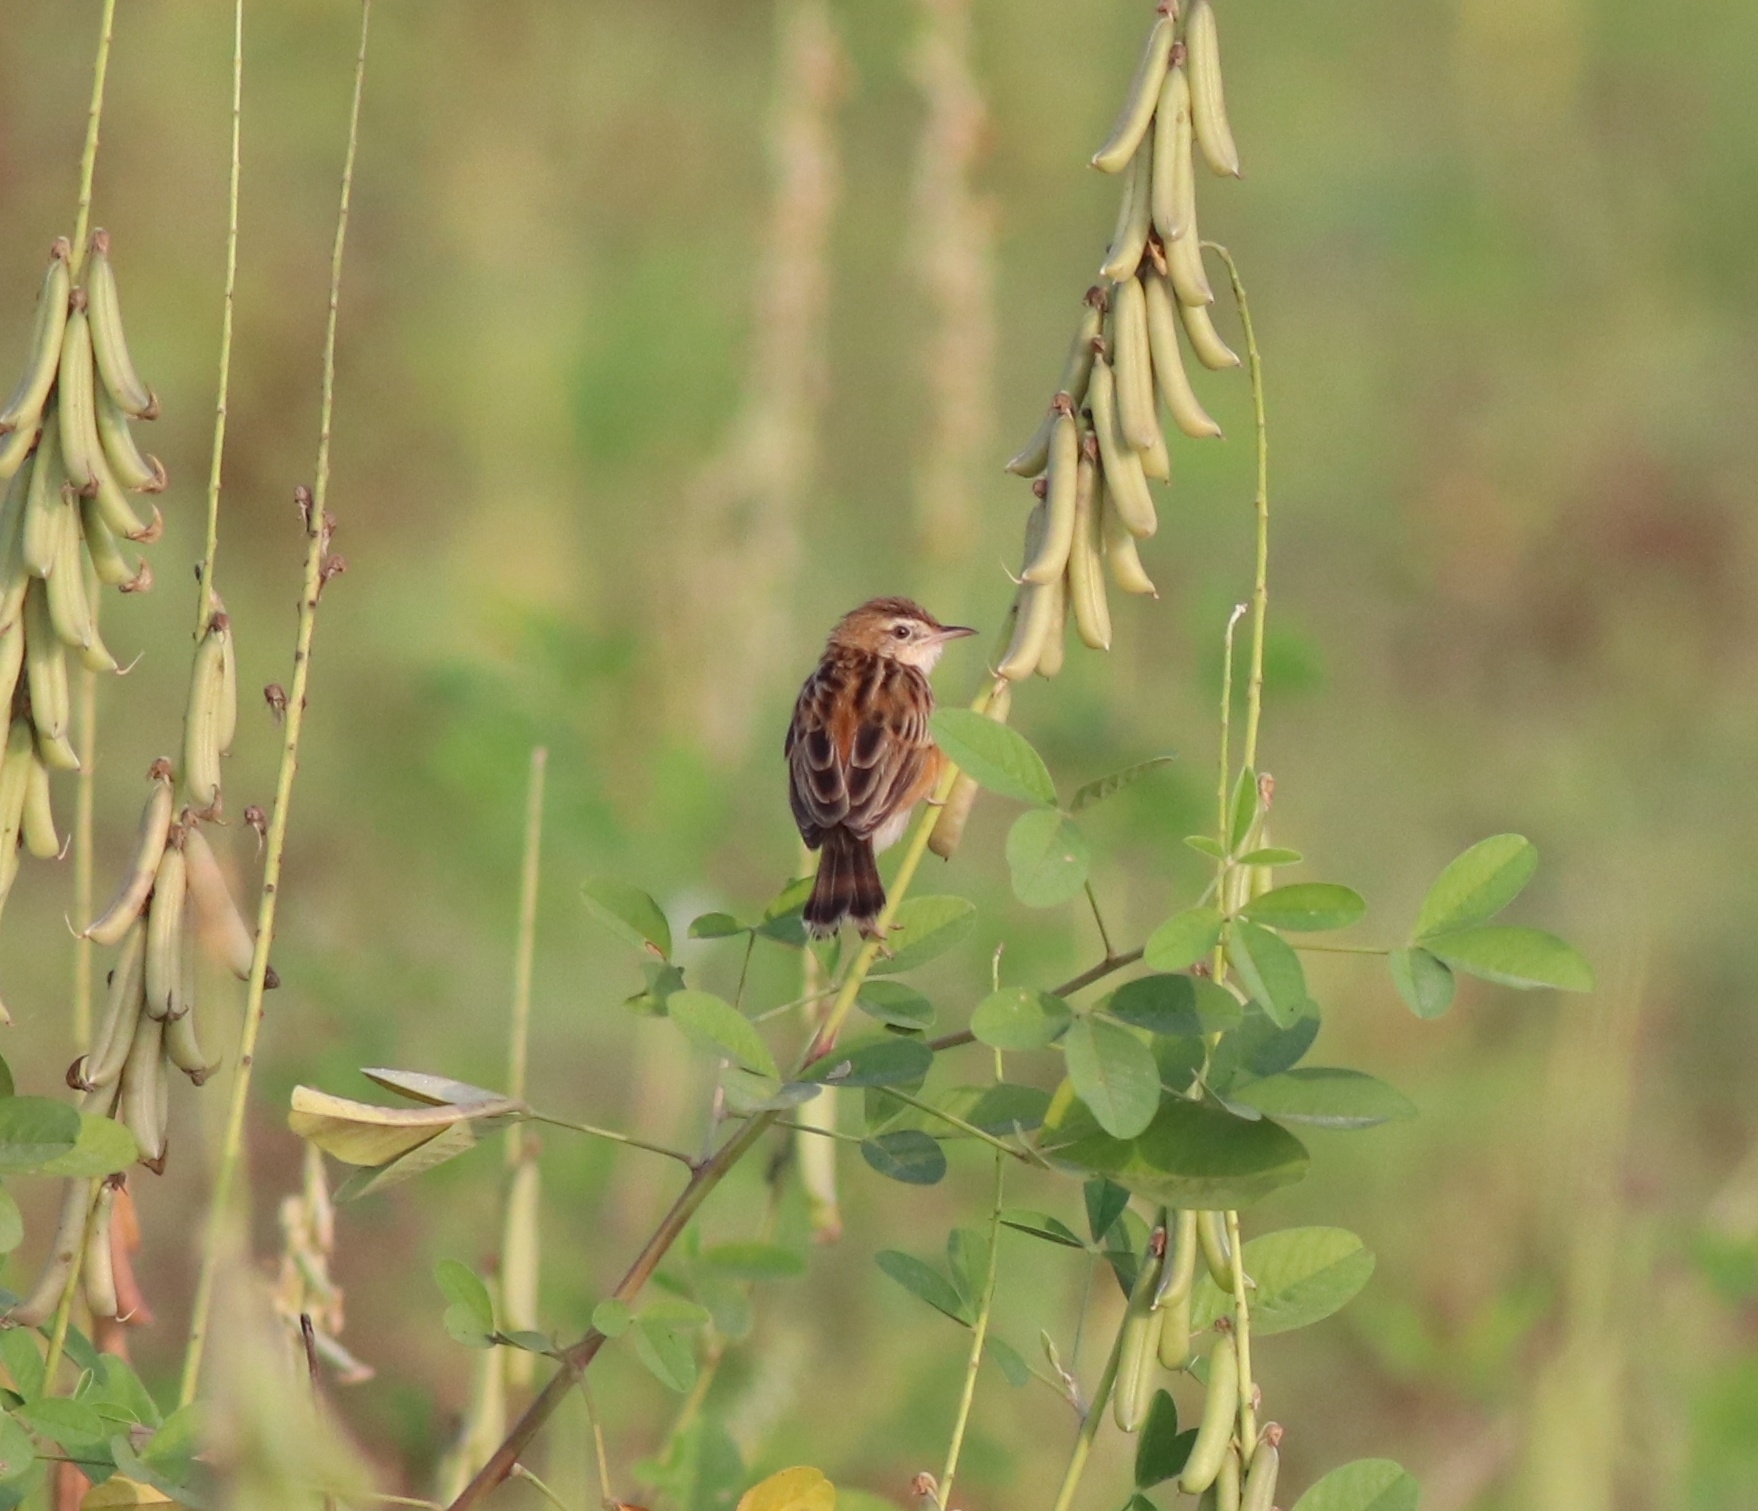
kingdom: Animalia
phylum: Chordata
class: Aves
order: Passeriformes
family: Cisticolidae
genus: Cisticola
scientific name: Cisticola juncidis
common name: Zitting cisticola
